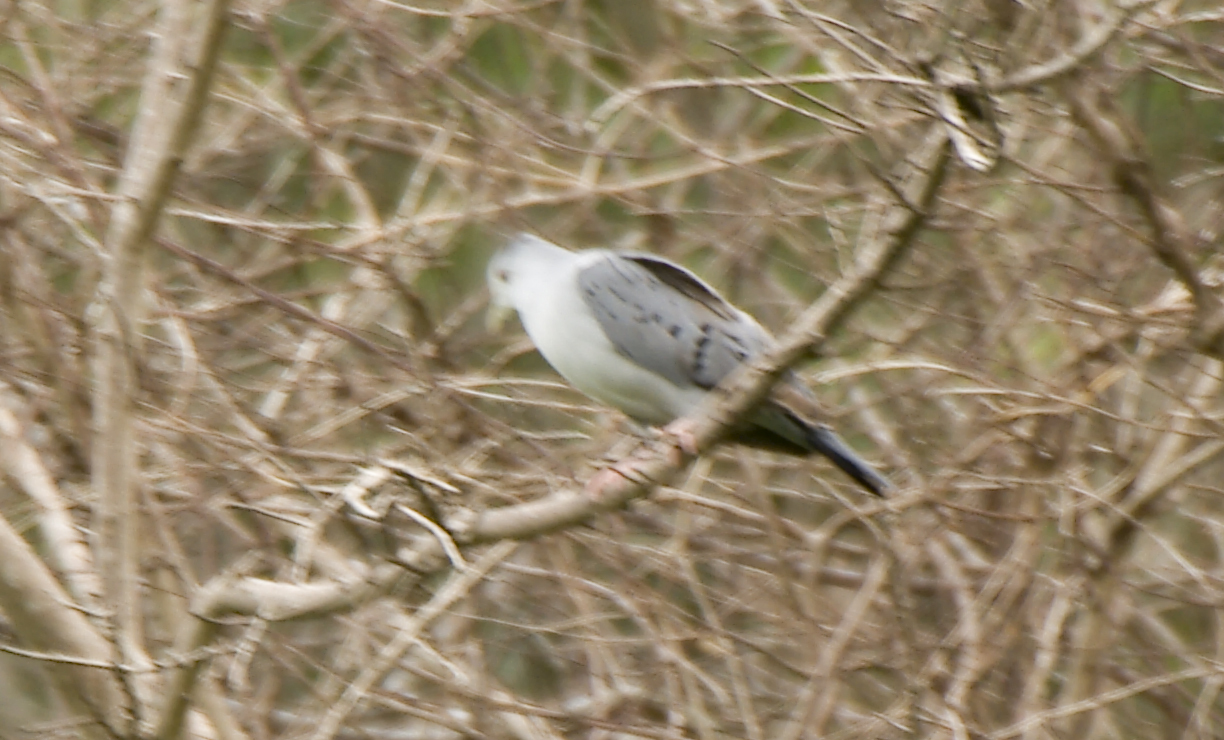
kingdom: Animalia
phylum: Chordata
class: Aves
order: Columbiformes
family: Columbidae
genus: Claravis
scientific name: Claravis pretiosa
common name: Blue ground-dove
